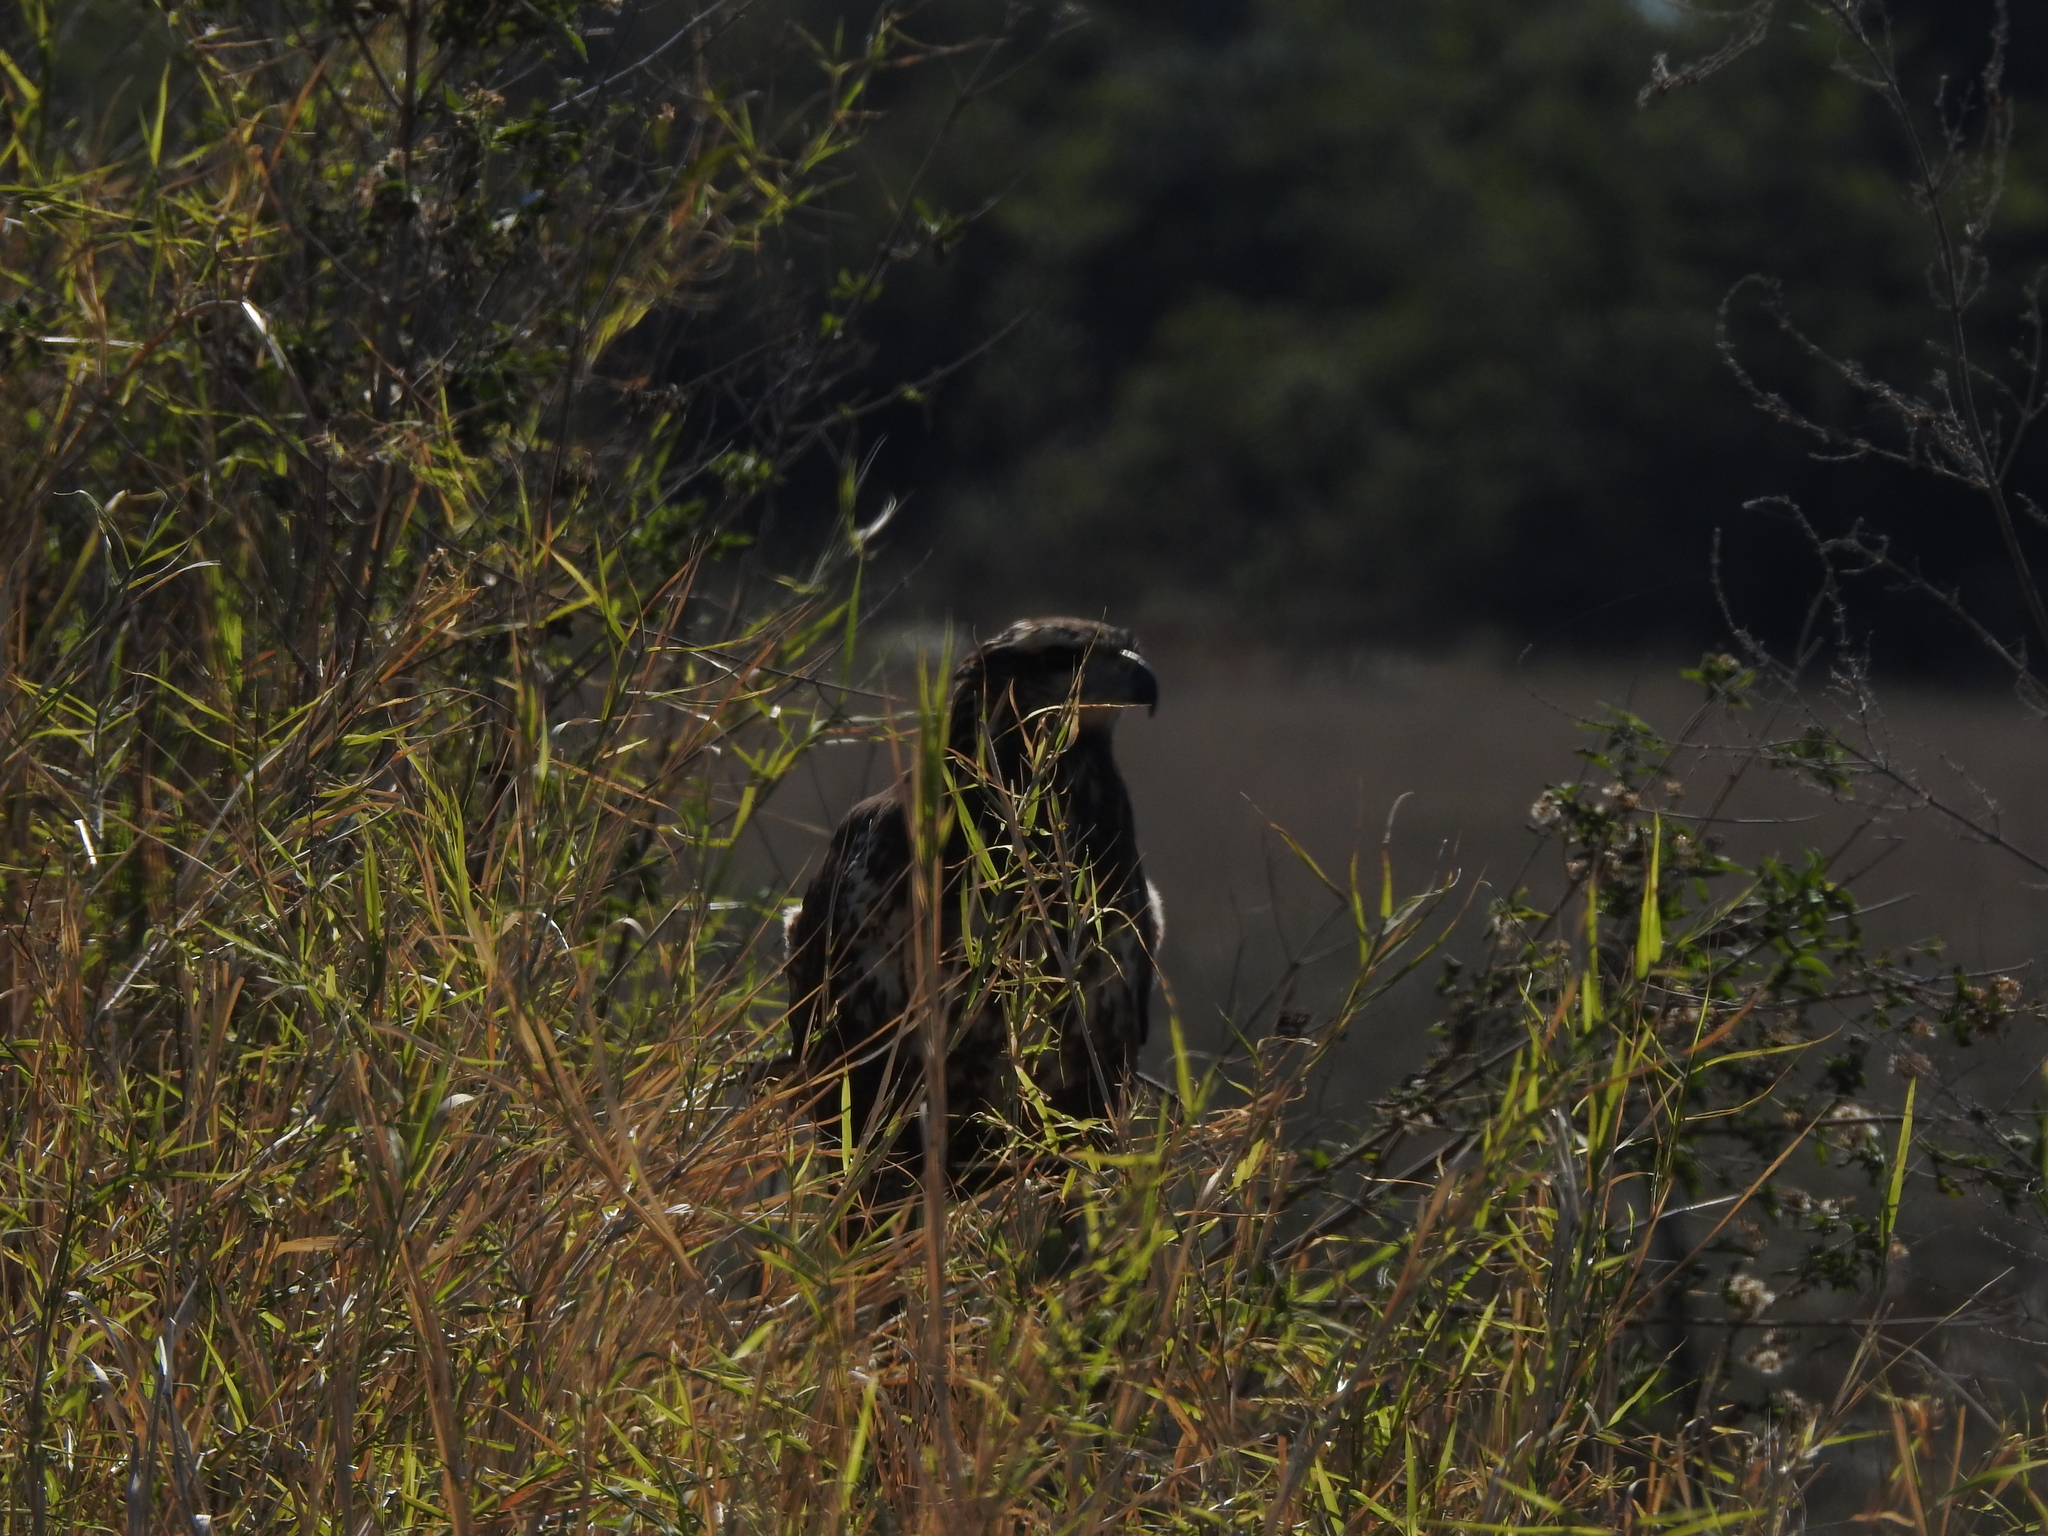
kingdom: Animalia
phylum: Chordata
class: Aves
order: Accipitriformes
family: Accipitridae
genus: Buteogallus
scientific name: Buteogallus urubitinga
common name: Great black hawk
